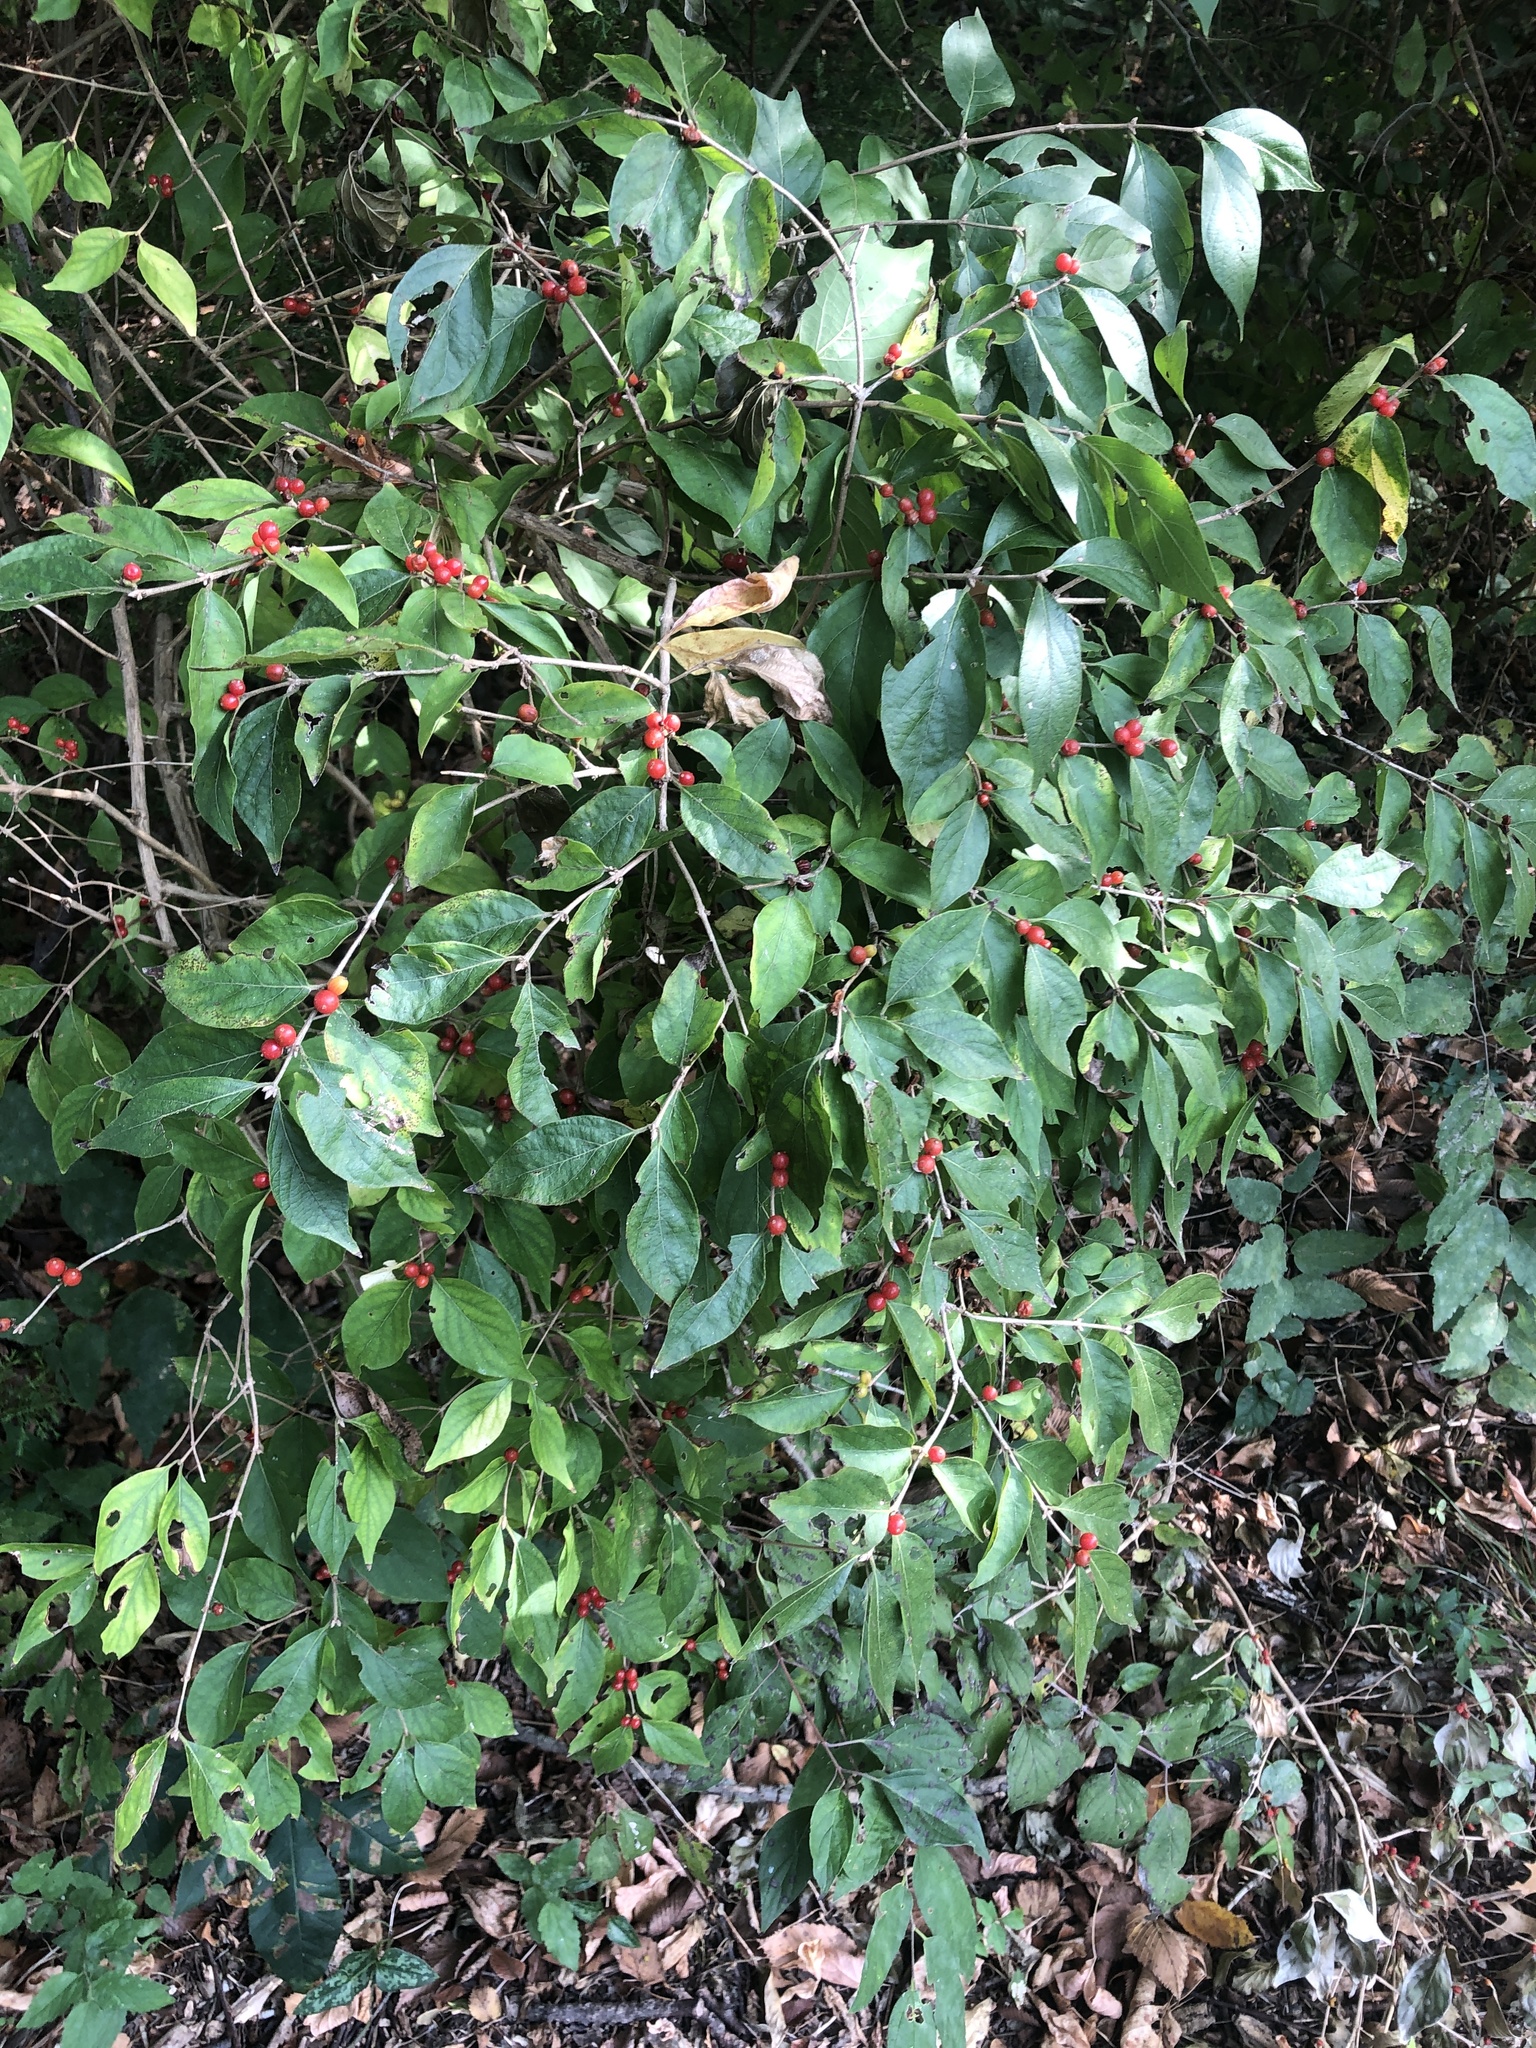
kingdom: Plantae
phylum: Tracheophyta
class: Magnoliopsida
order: Dipsacales
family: Caprifoliaceae
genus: Lonicera
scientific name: Lonicera maackii
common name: Amur honeysuckle
